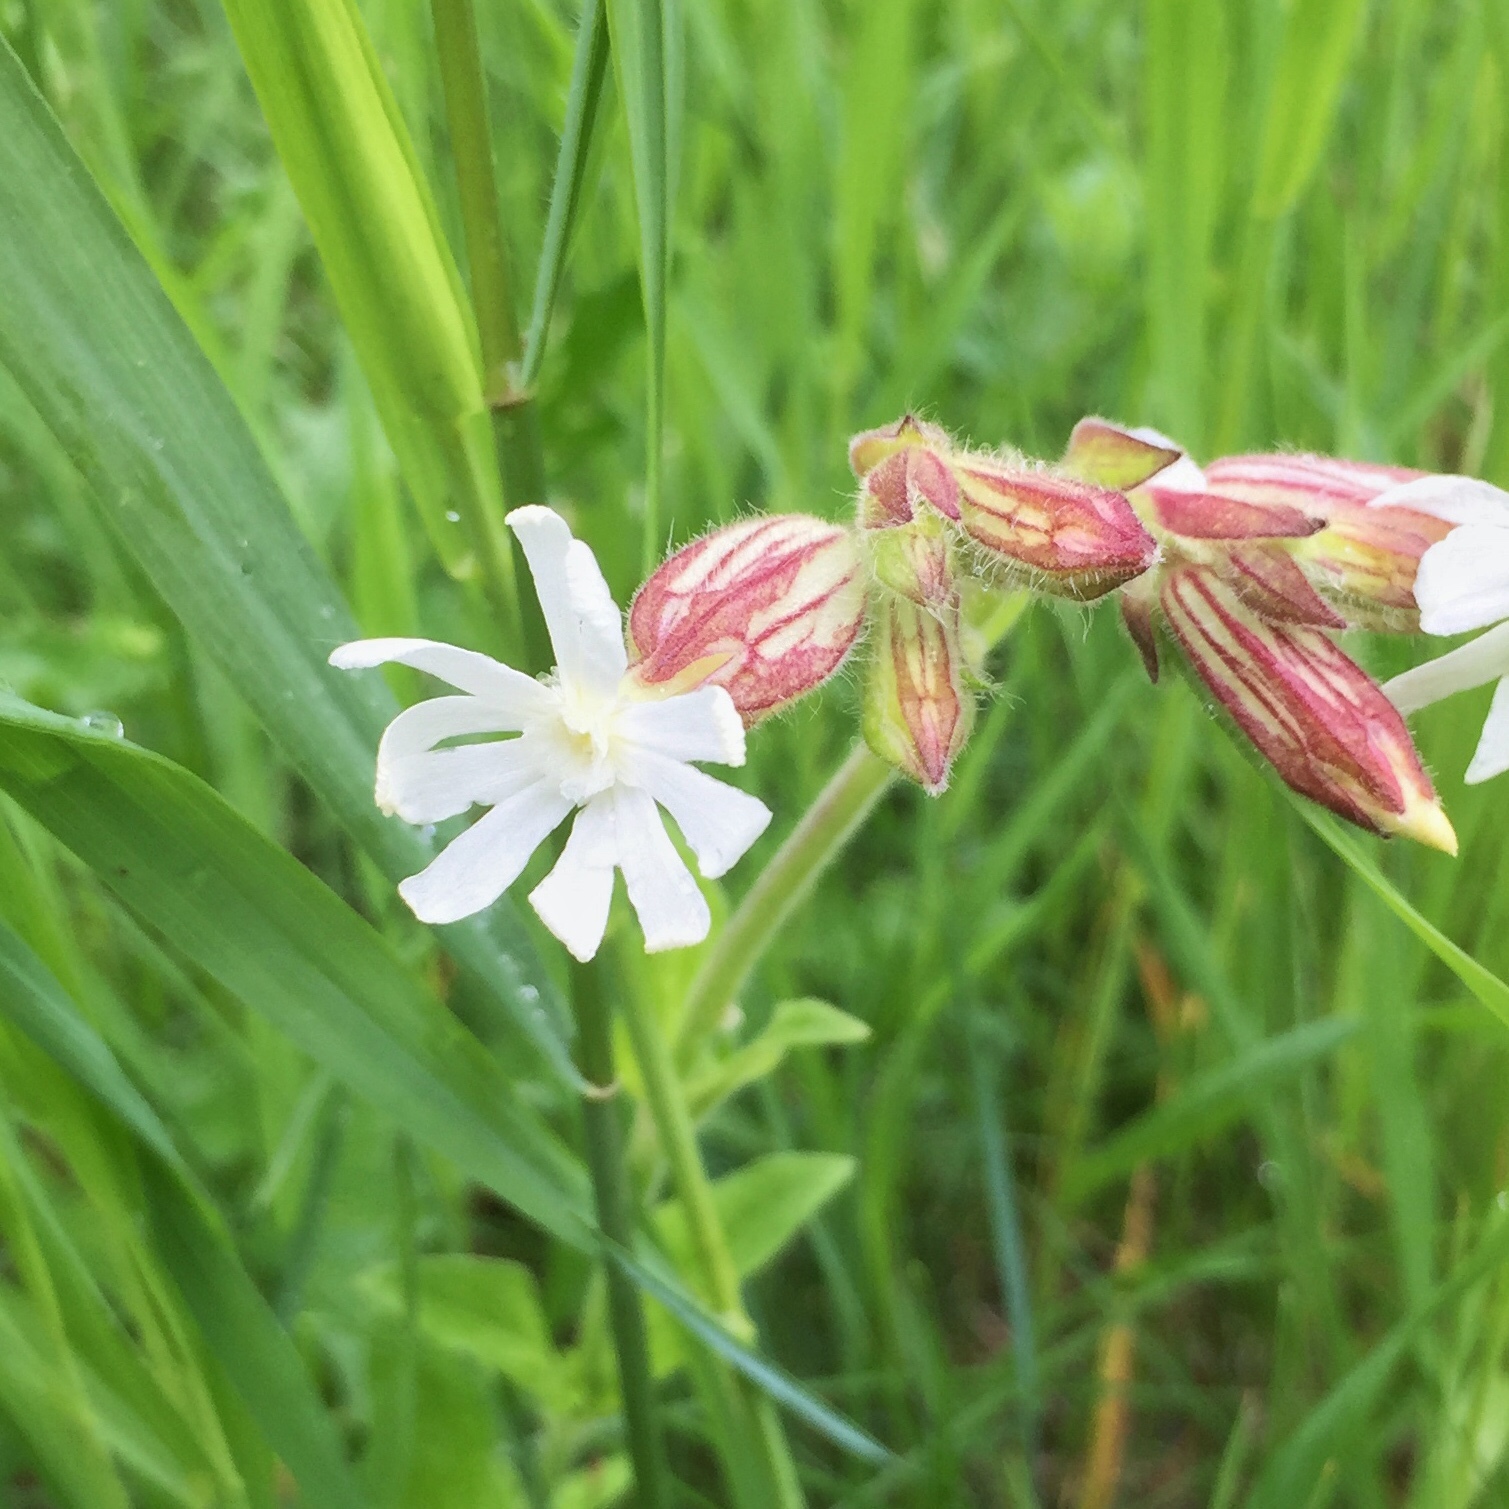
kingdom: Plantae
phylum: Tracheophyta
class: Magnoliopsida
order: Caryophyllales
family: Caryophyllaceae
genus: Silene
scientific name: Silene latifolia
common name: White campion
